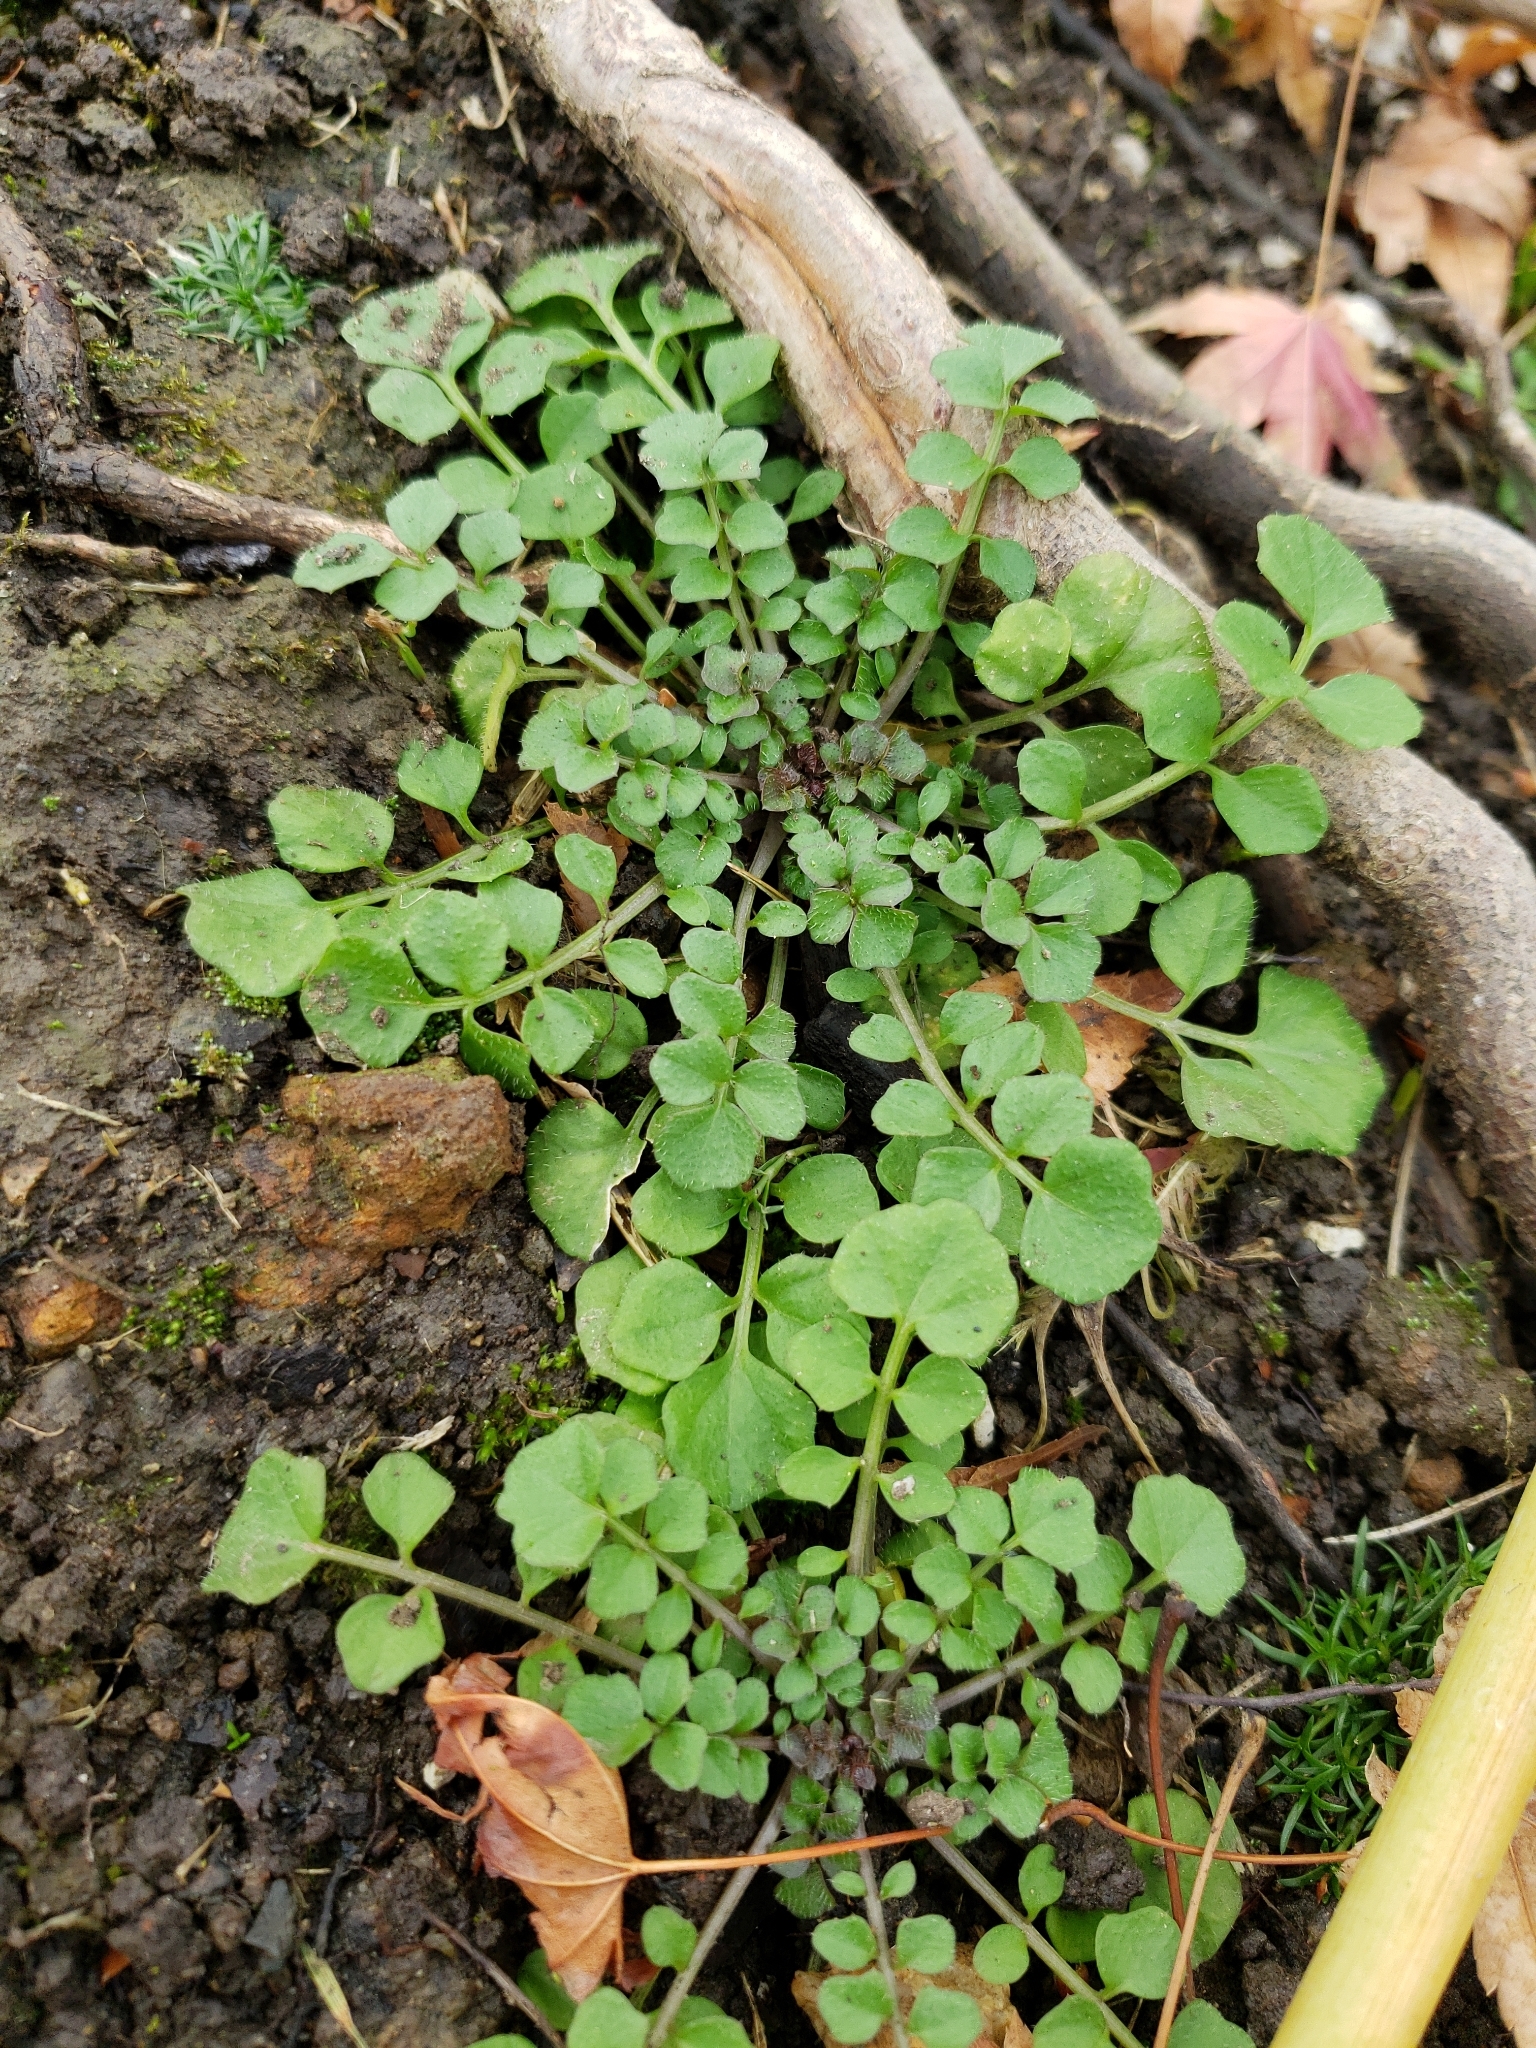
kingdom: Plantae
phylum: Tracheophyta
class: Magnoliopsida
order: Brassicales
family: Brassicaceae
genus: Cardamine
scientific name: Cardamine hirsuta
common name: Hairy bittercress
